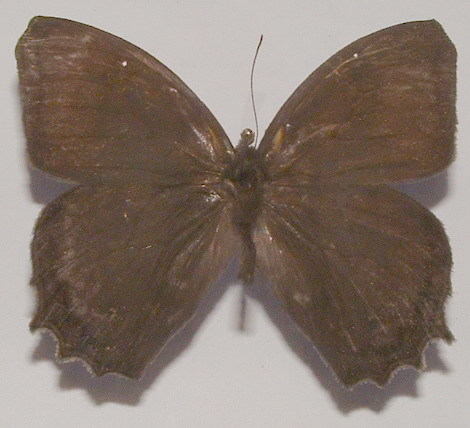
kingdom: Animalia
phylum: Arthropoda
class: Insecta
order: Lepidoptera
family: Nymphalidae
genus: Taygetis
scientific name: Taygetis inconspicua
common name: Inconspicuous satyr
